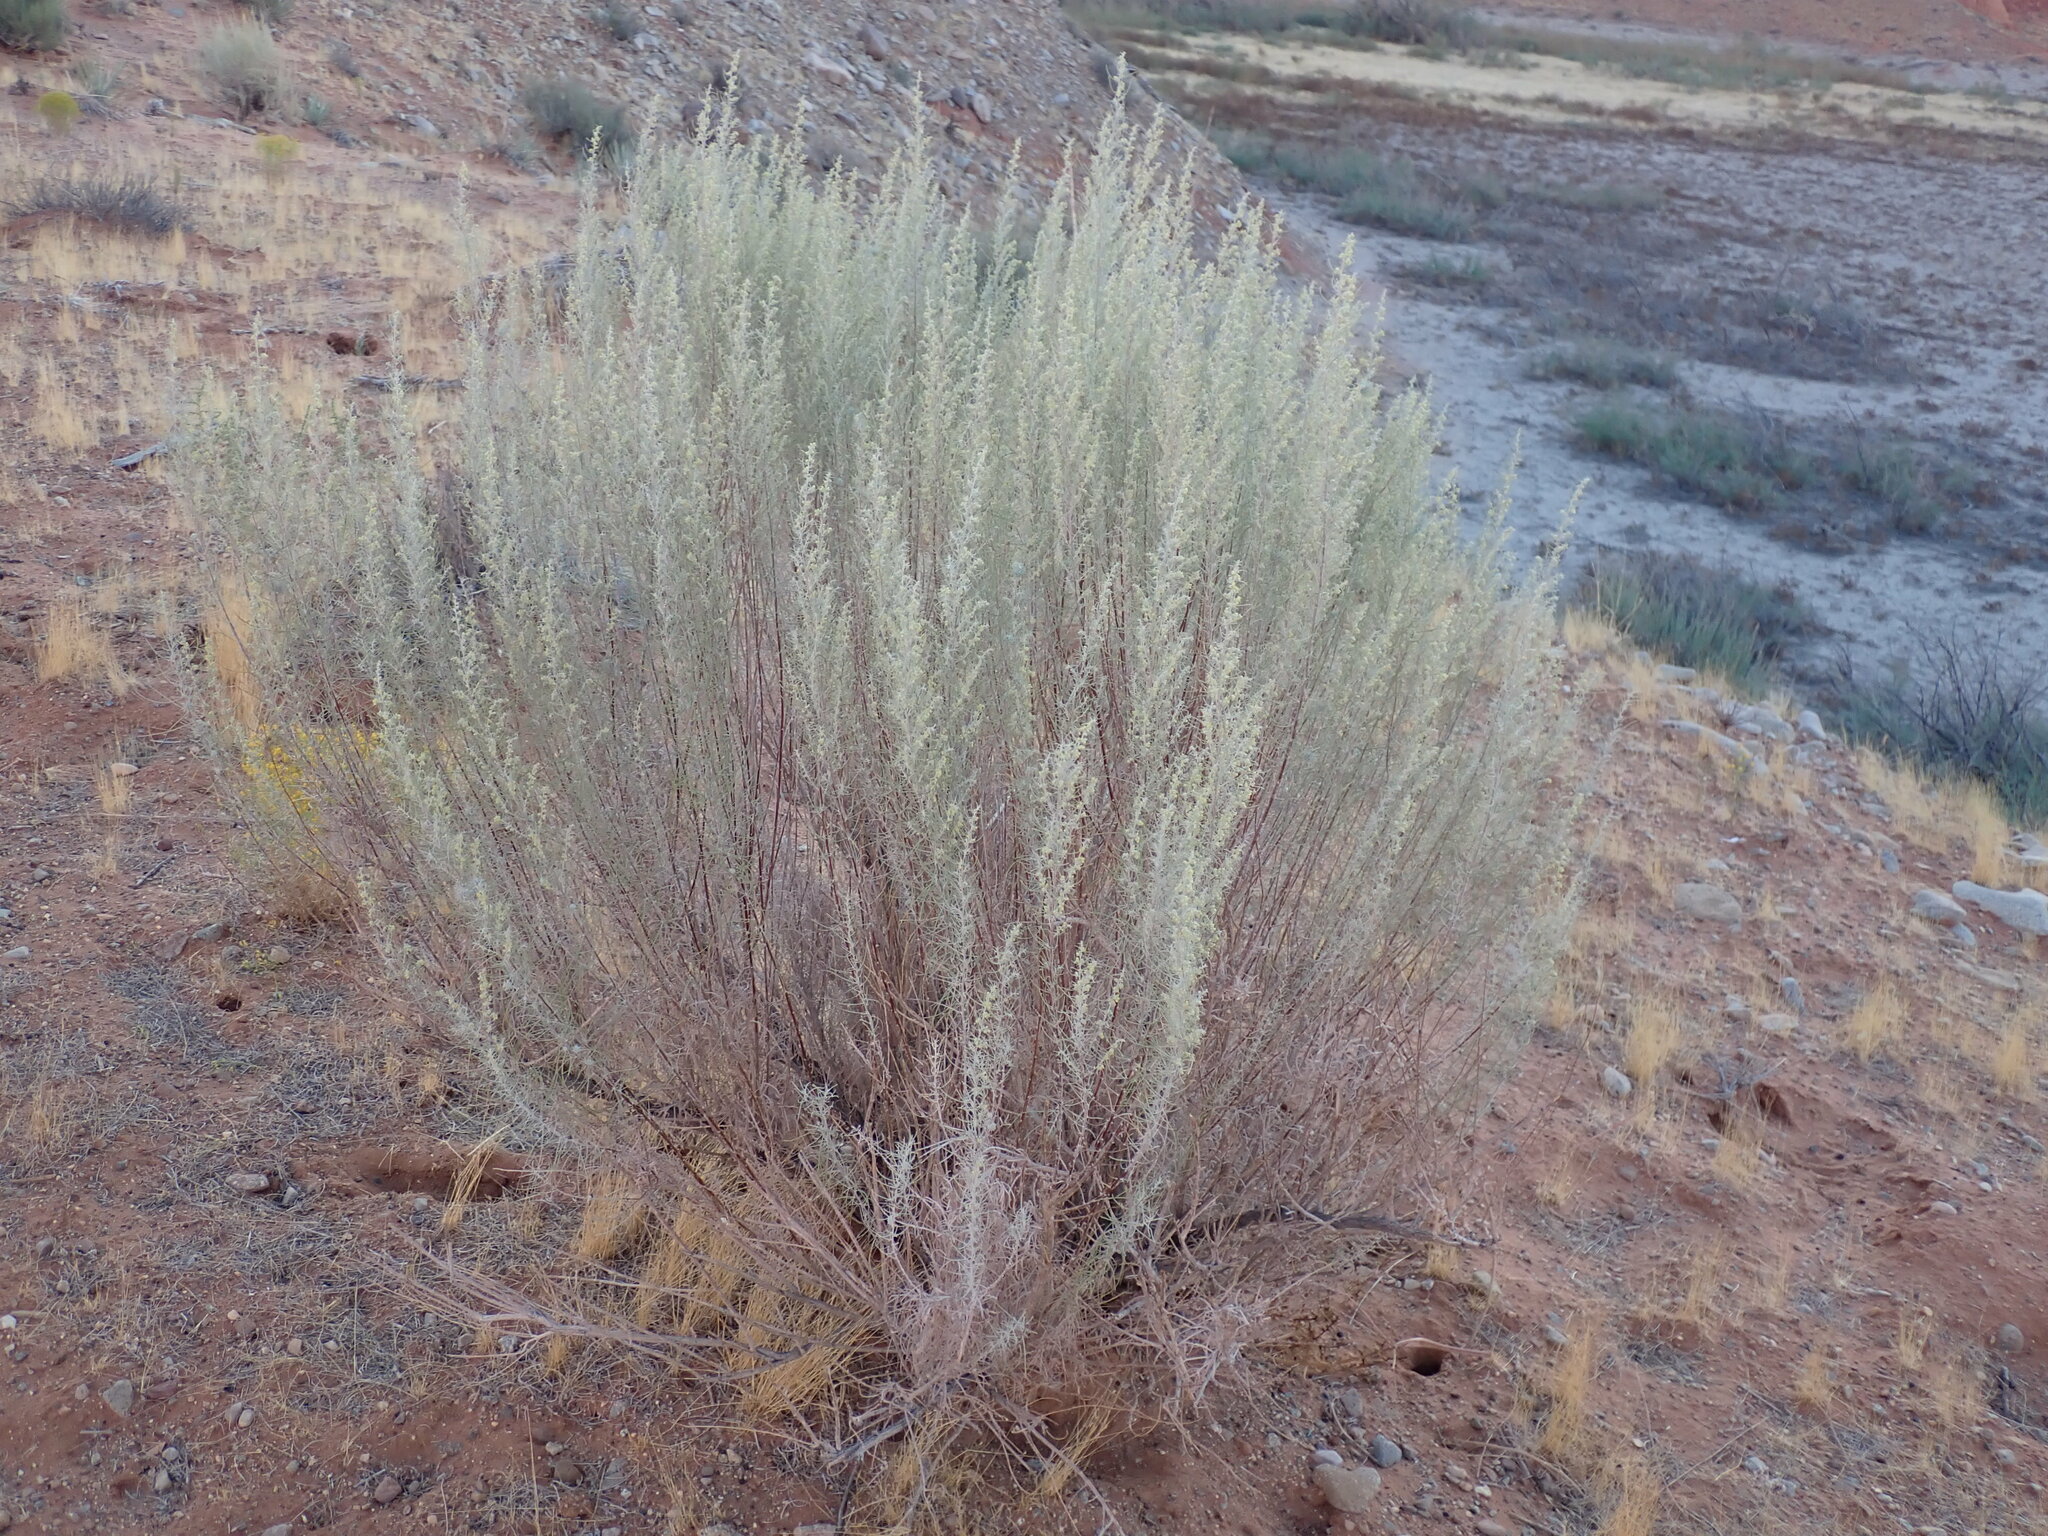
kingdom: Plantae
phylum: Tracheophyta
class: Magnoliopsida
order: Asterales
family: Asteraceae
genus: Artemisia
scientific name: Artemisia filifolia
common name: Sand-sage
